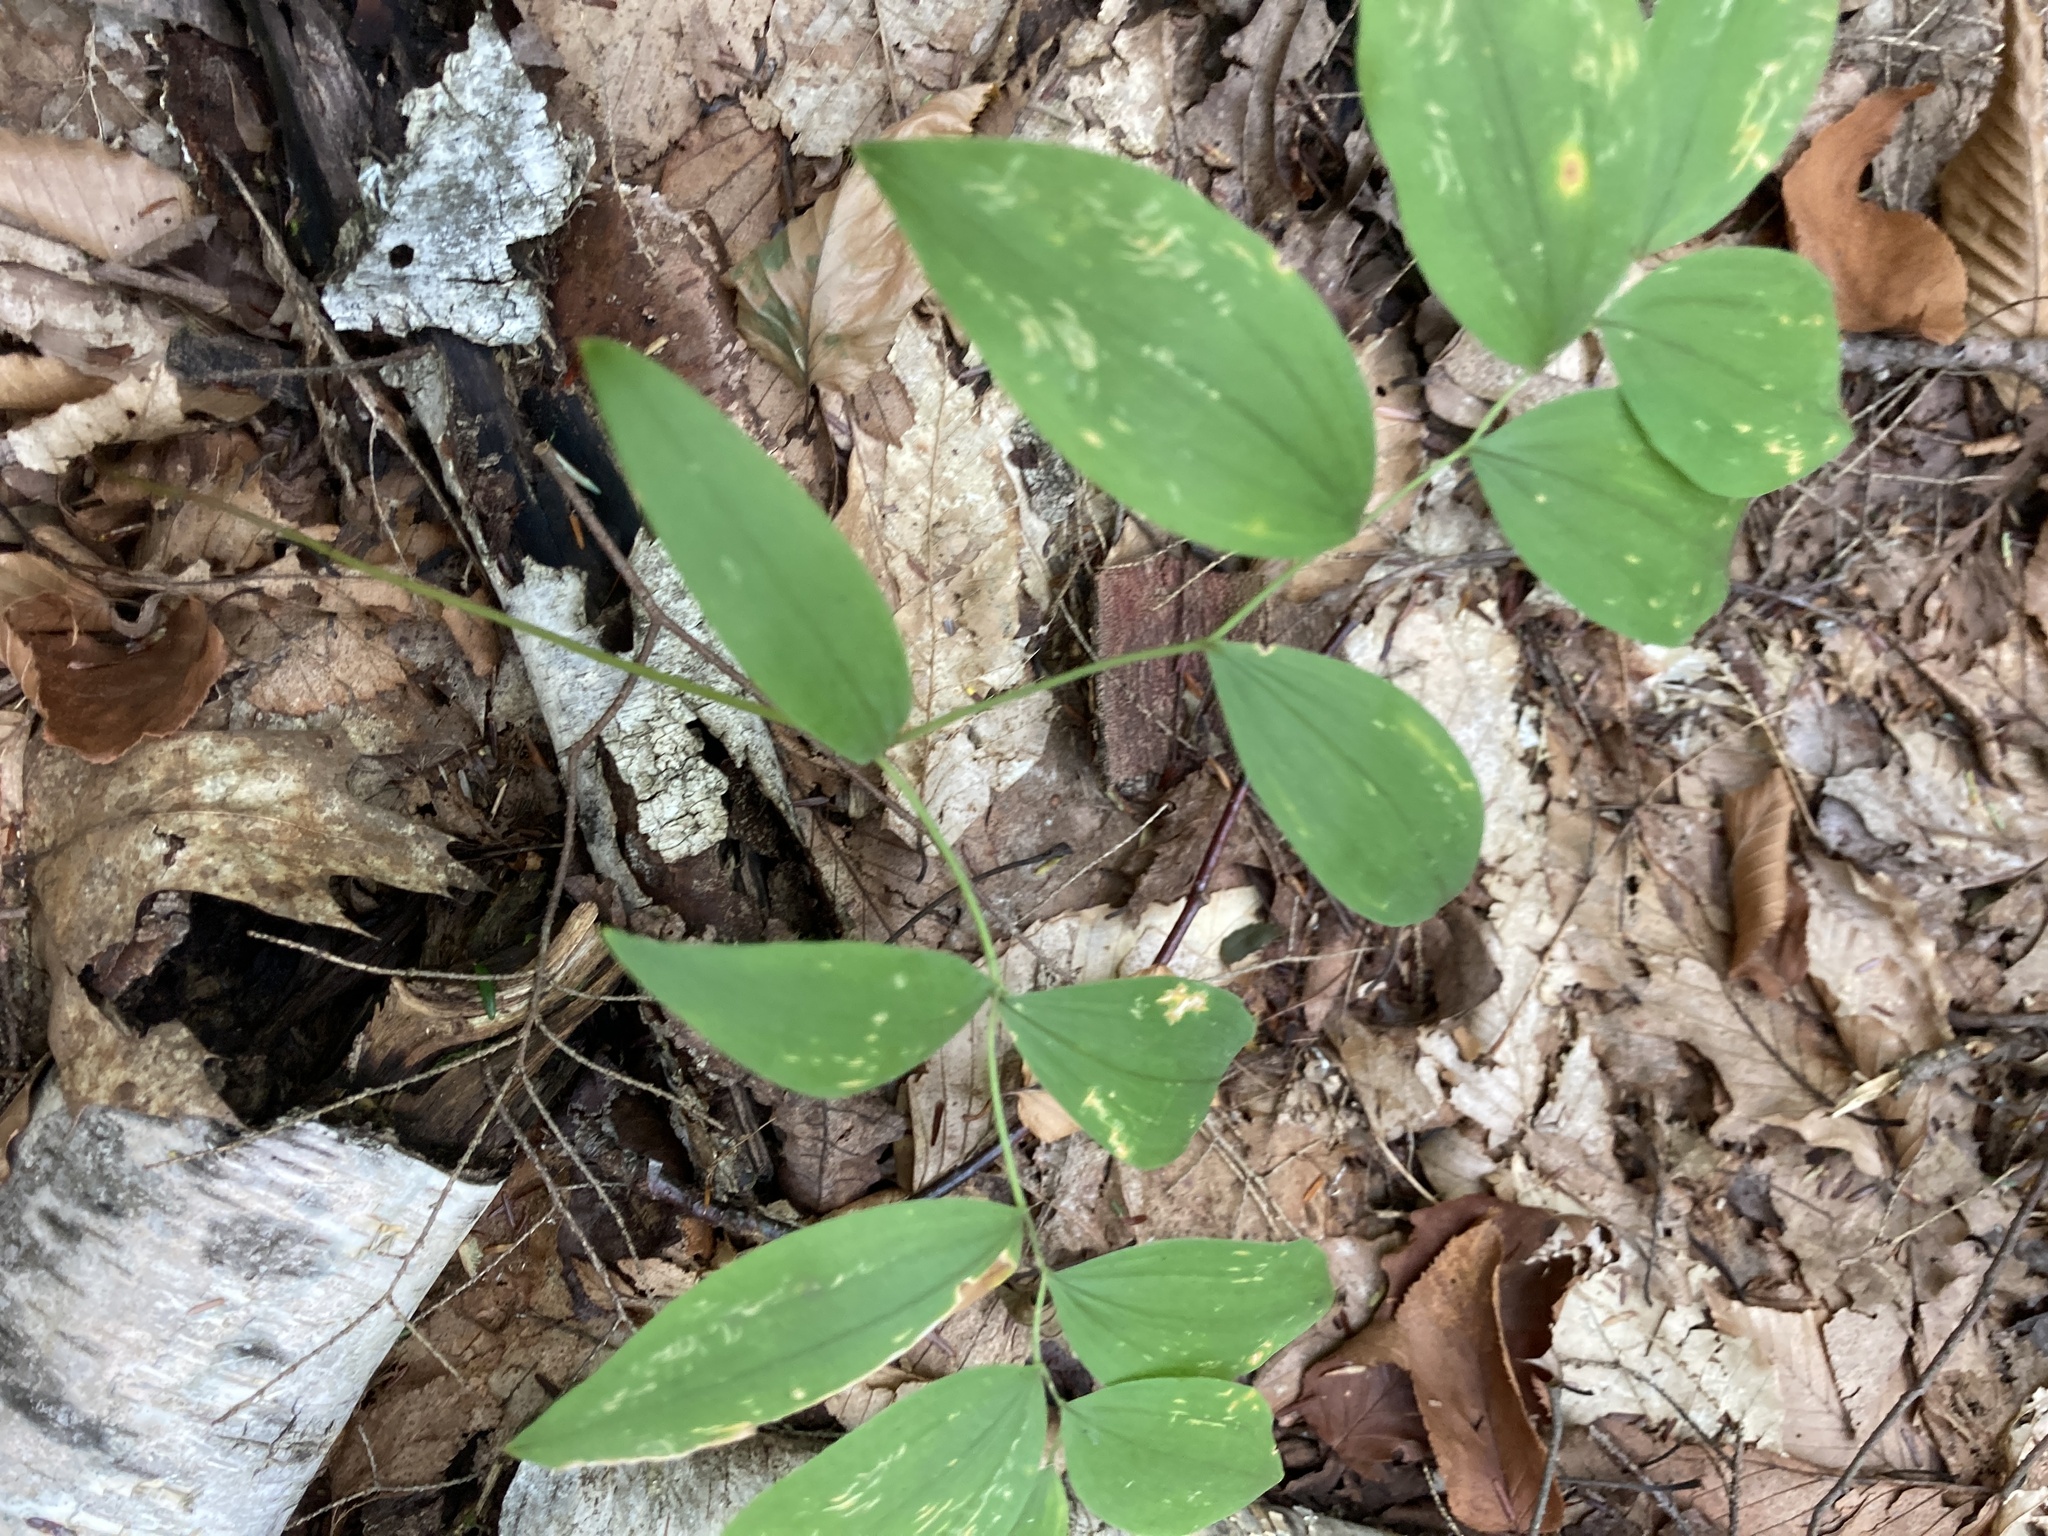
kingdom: Plantae
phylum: Tracheophyta
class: Liliopsida
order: Liliales
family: Colchicaceae
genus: Uvularia
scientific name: Uvularia sessilifolia
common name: Straw-lily
